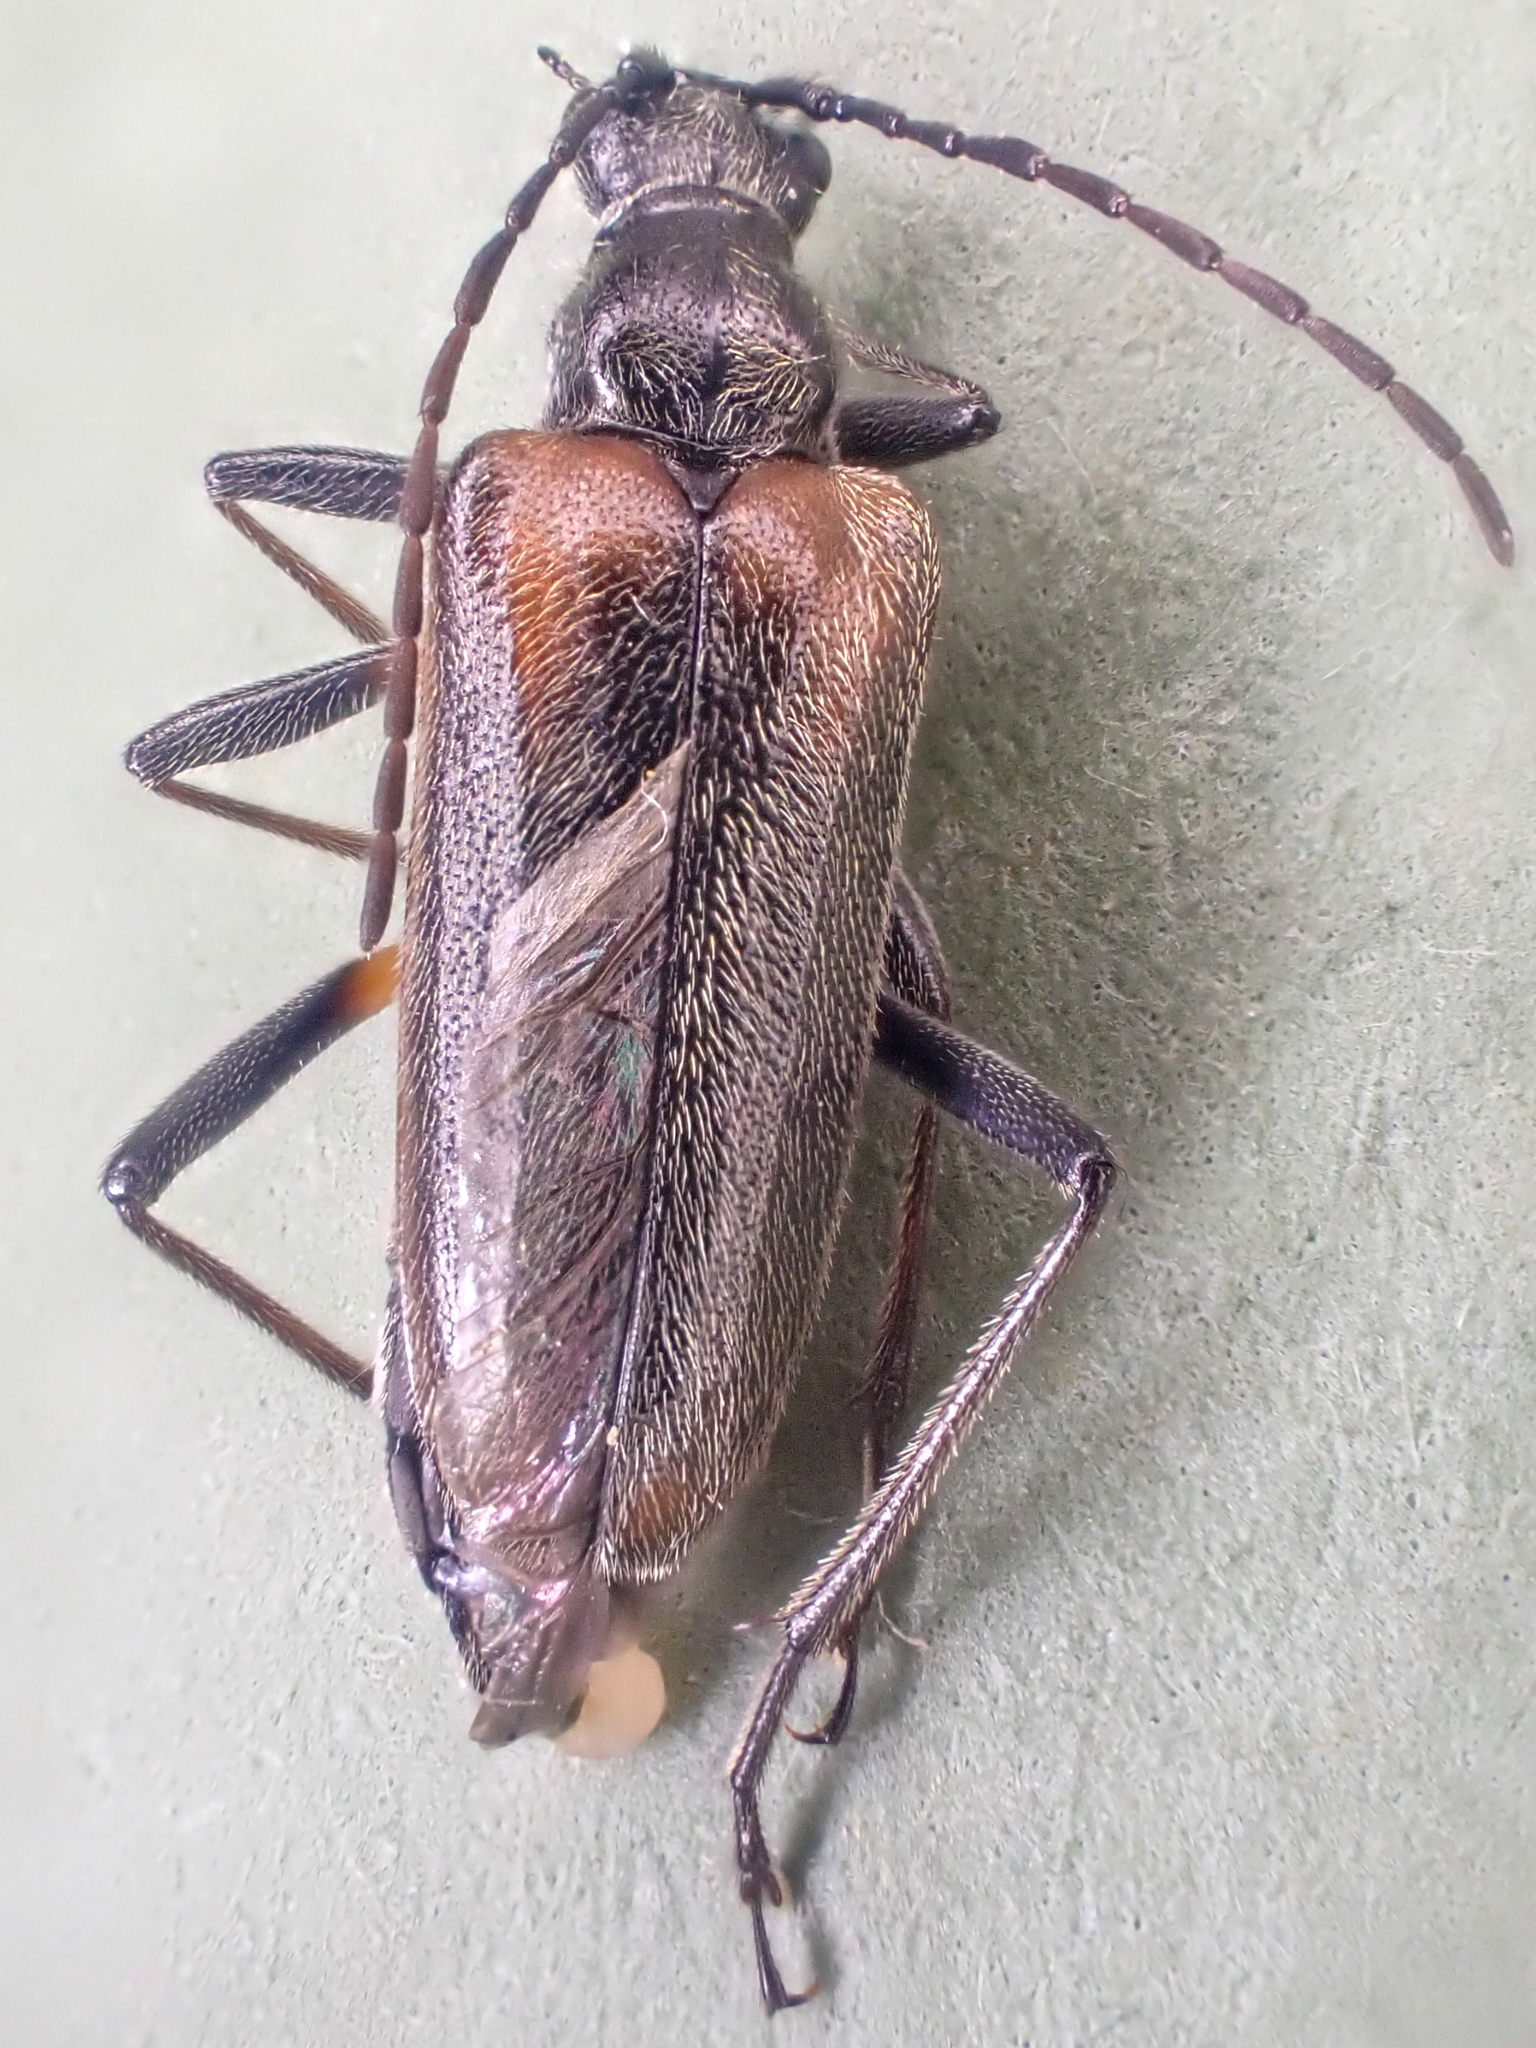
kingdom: Animalia
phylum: Arthropoda
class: Insecta
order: Coleoptera
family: Cerambycidae
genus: Acmaeops
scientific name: Acmaeops proteus
